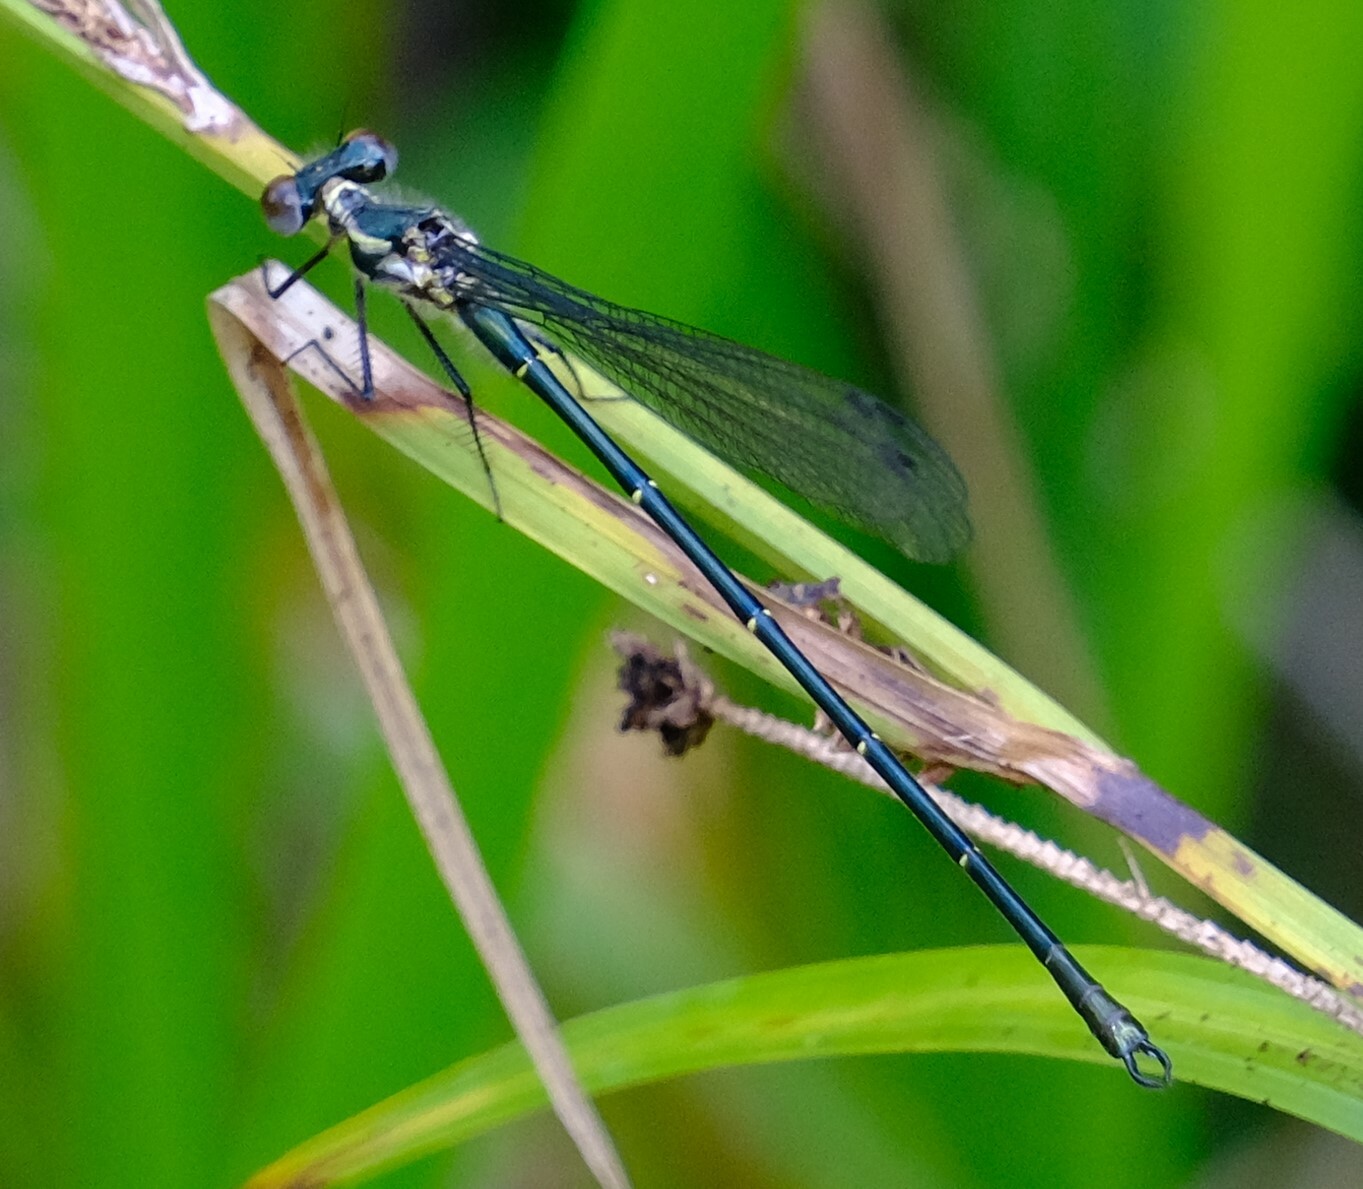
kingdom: Animalia
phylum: Arthropoda
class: Insecta
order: Odonata
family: Argiolestidae
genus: Austroargiolestes
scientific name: Austroargiolestes icteromelas
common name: Common flatwing
